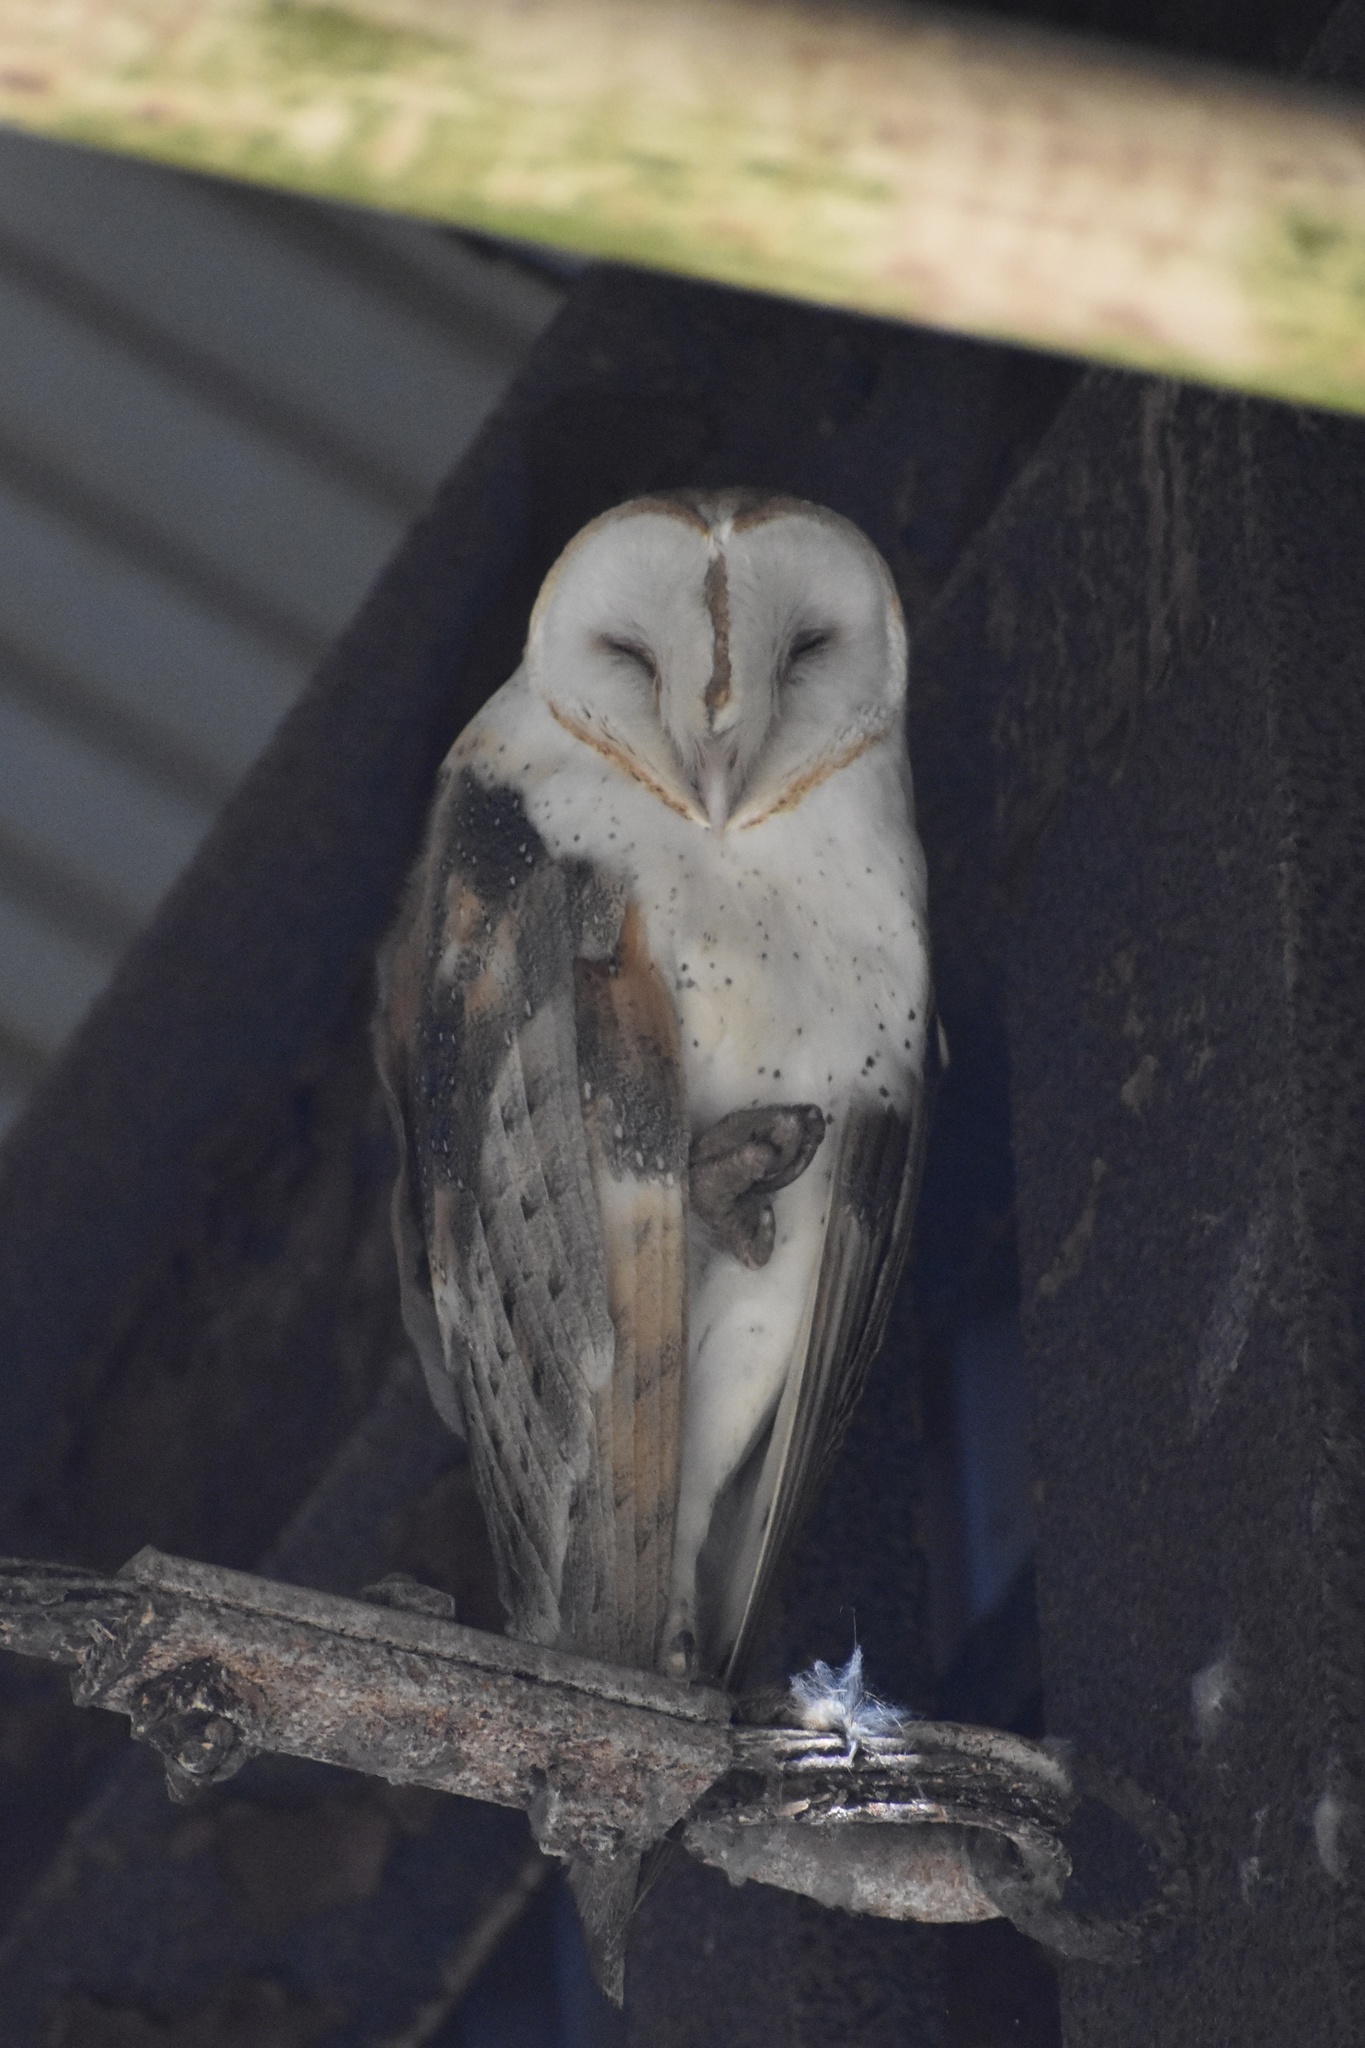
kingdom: Animalia
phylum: Chordata
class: Aves
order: Strigiformes
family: Tytonidae
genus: Tyto
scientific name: Tyto alba
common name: Barn owl
